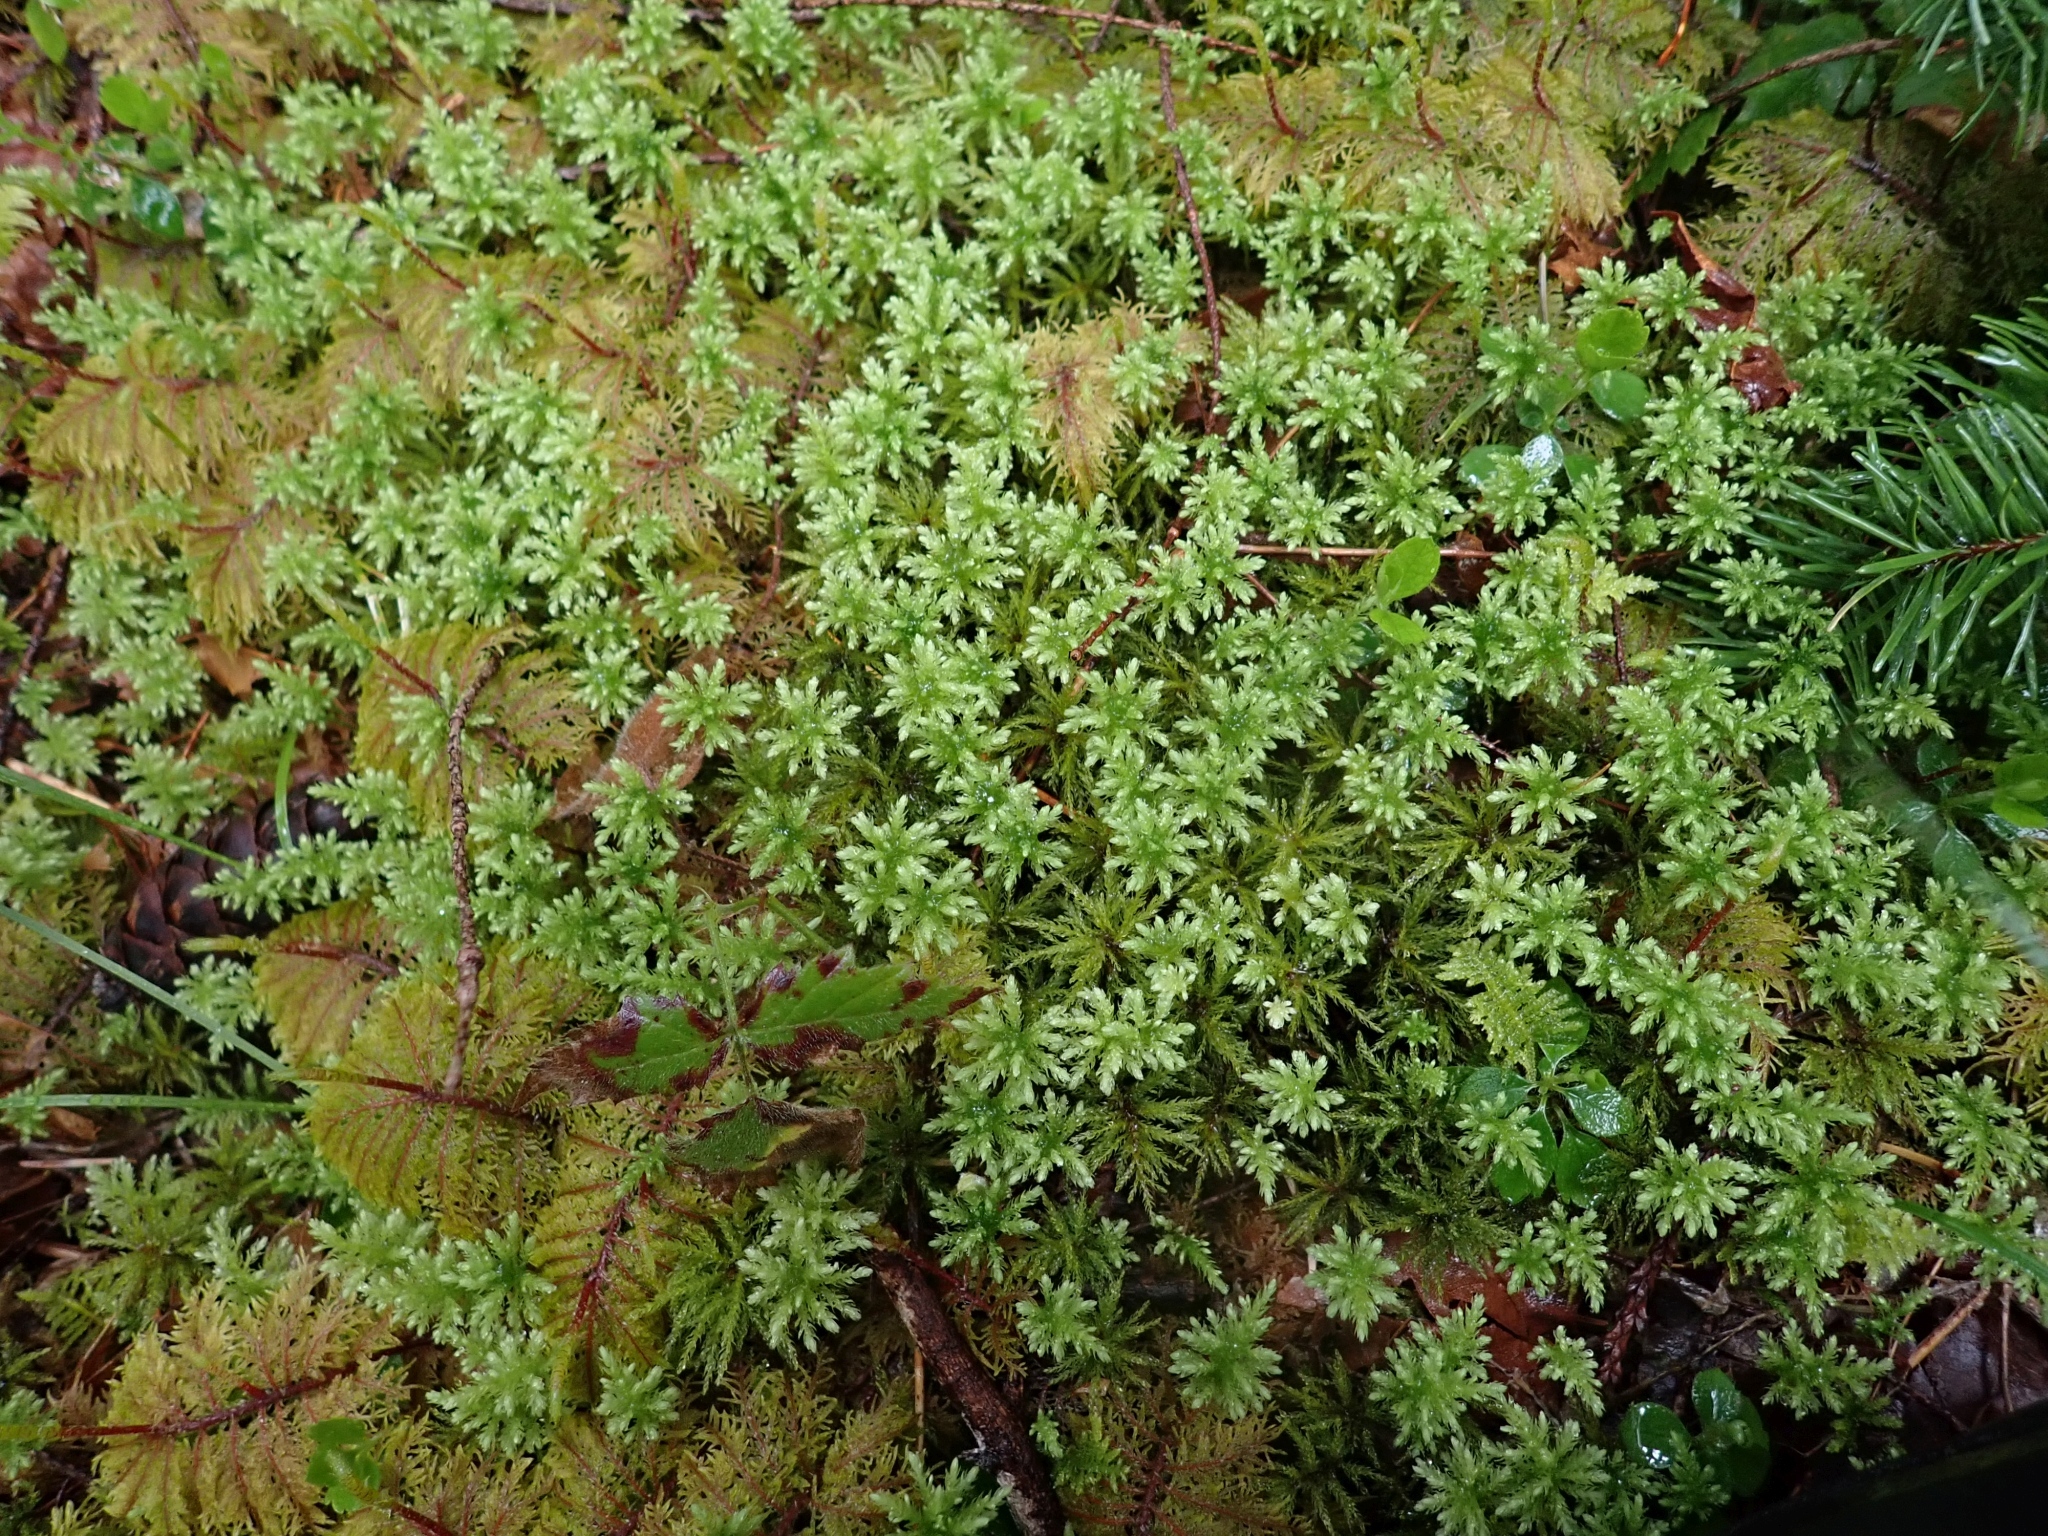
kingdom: Plantae
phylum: Bryophyta
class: Bryopsida
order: Bryales
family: Mniaceae
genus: Leucolepis
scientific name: Leucolepis acanthoneura
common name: Leucolepis umbrella moss
